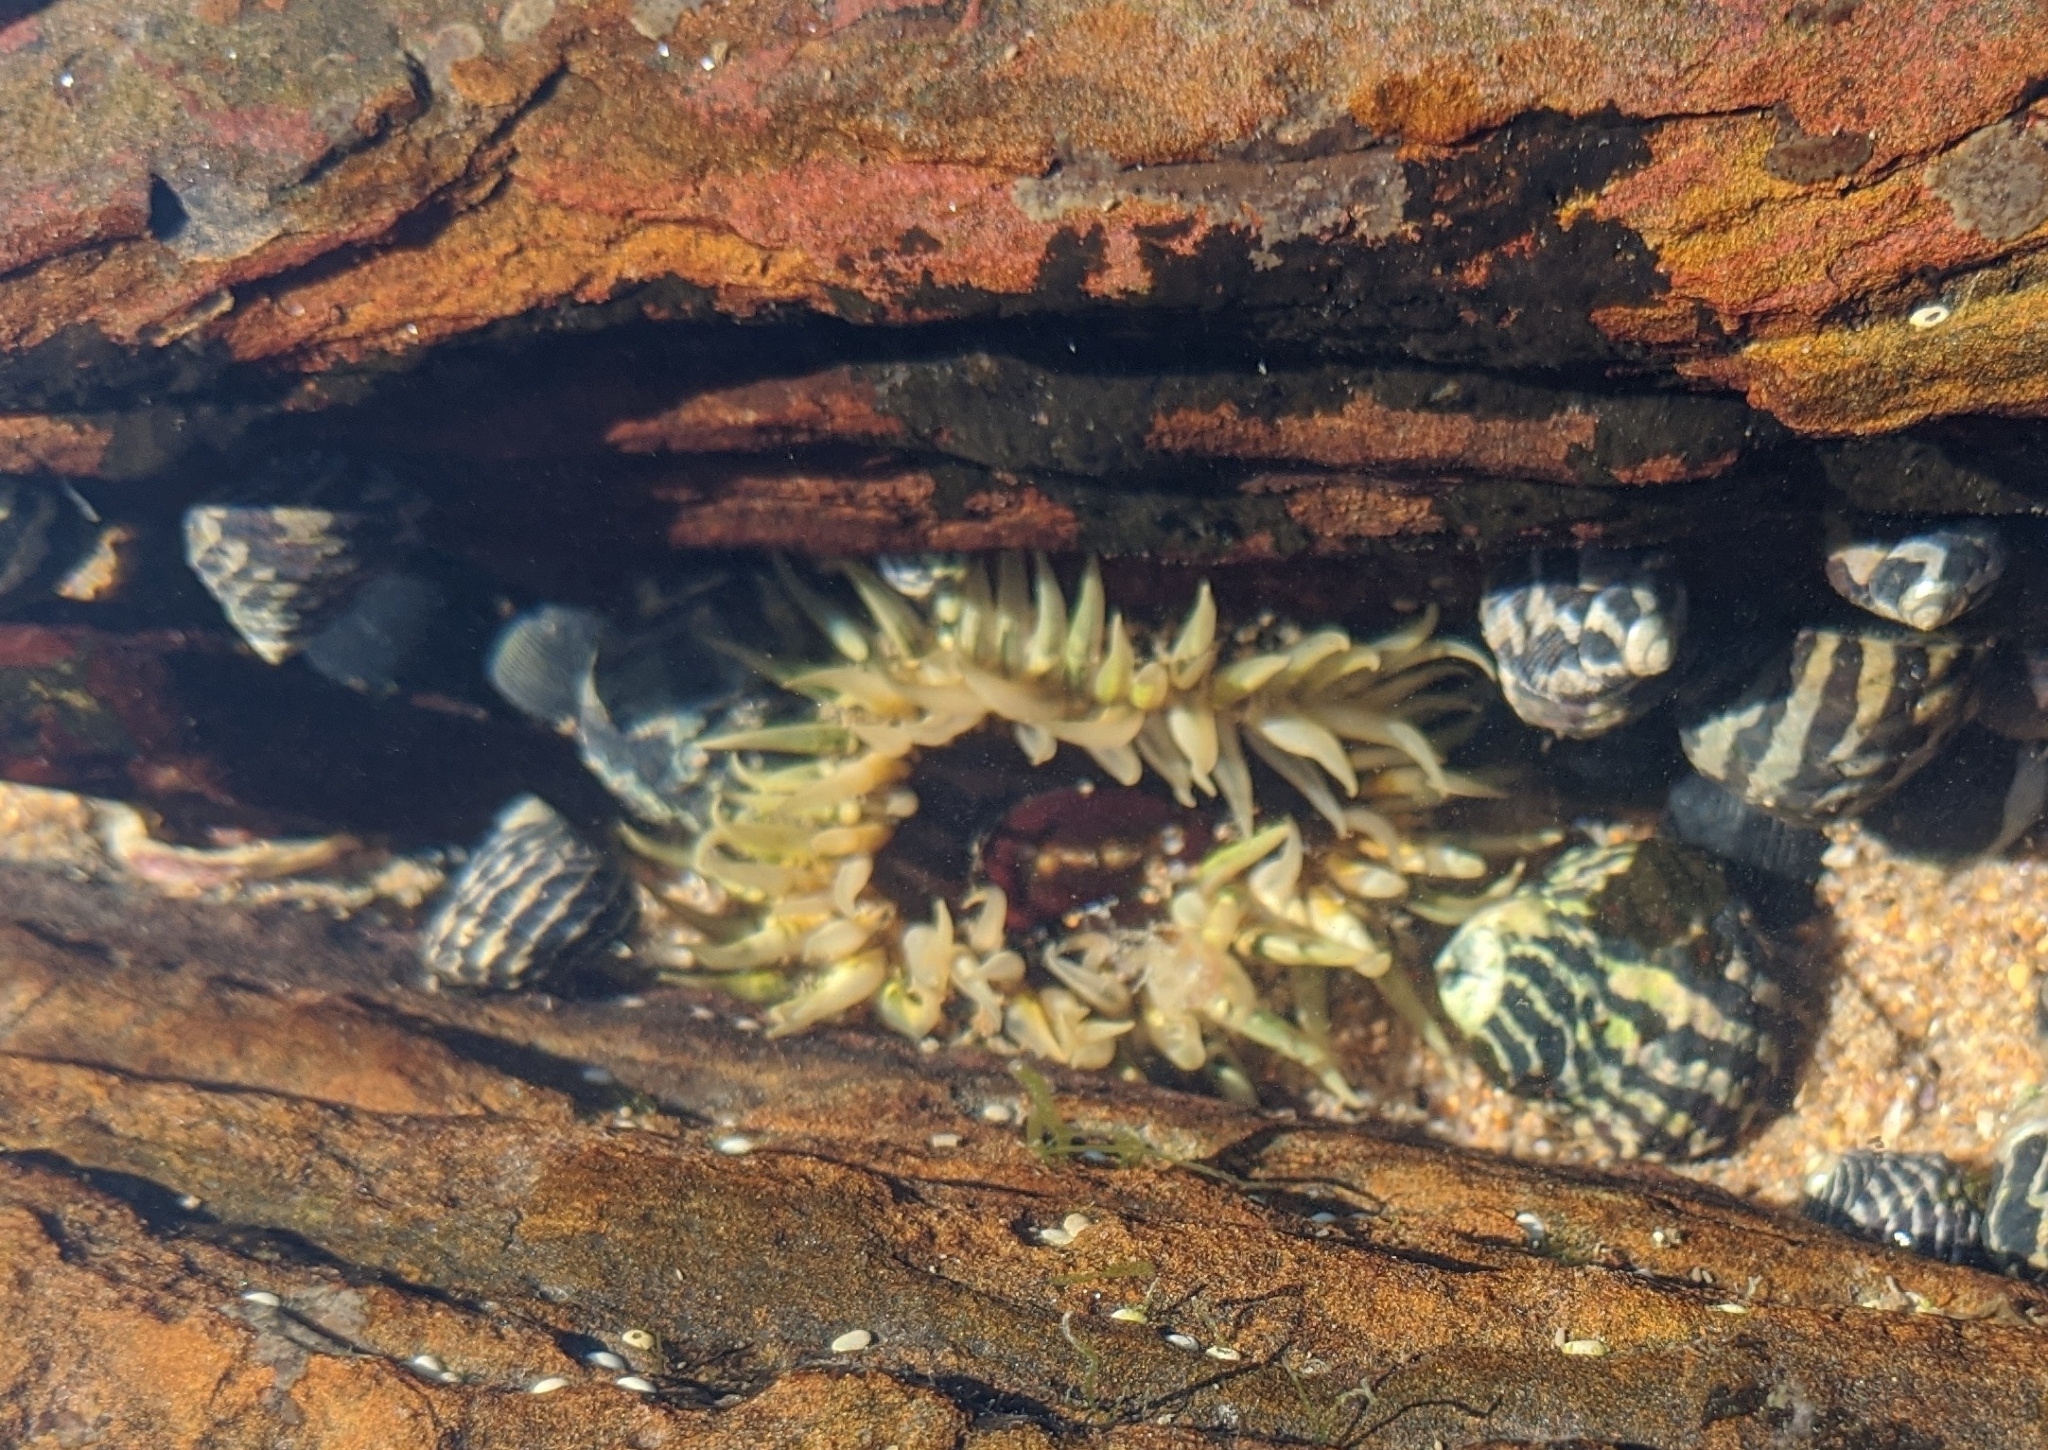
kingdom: Animalia
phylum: Cnidaria
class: Anthozoa
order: Actiniaria
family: Actiniidae
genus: Oulactis
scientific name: Oulactis muscosa
